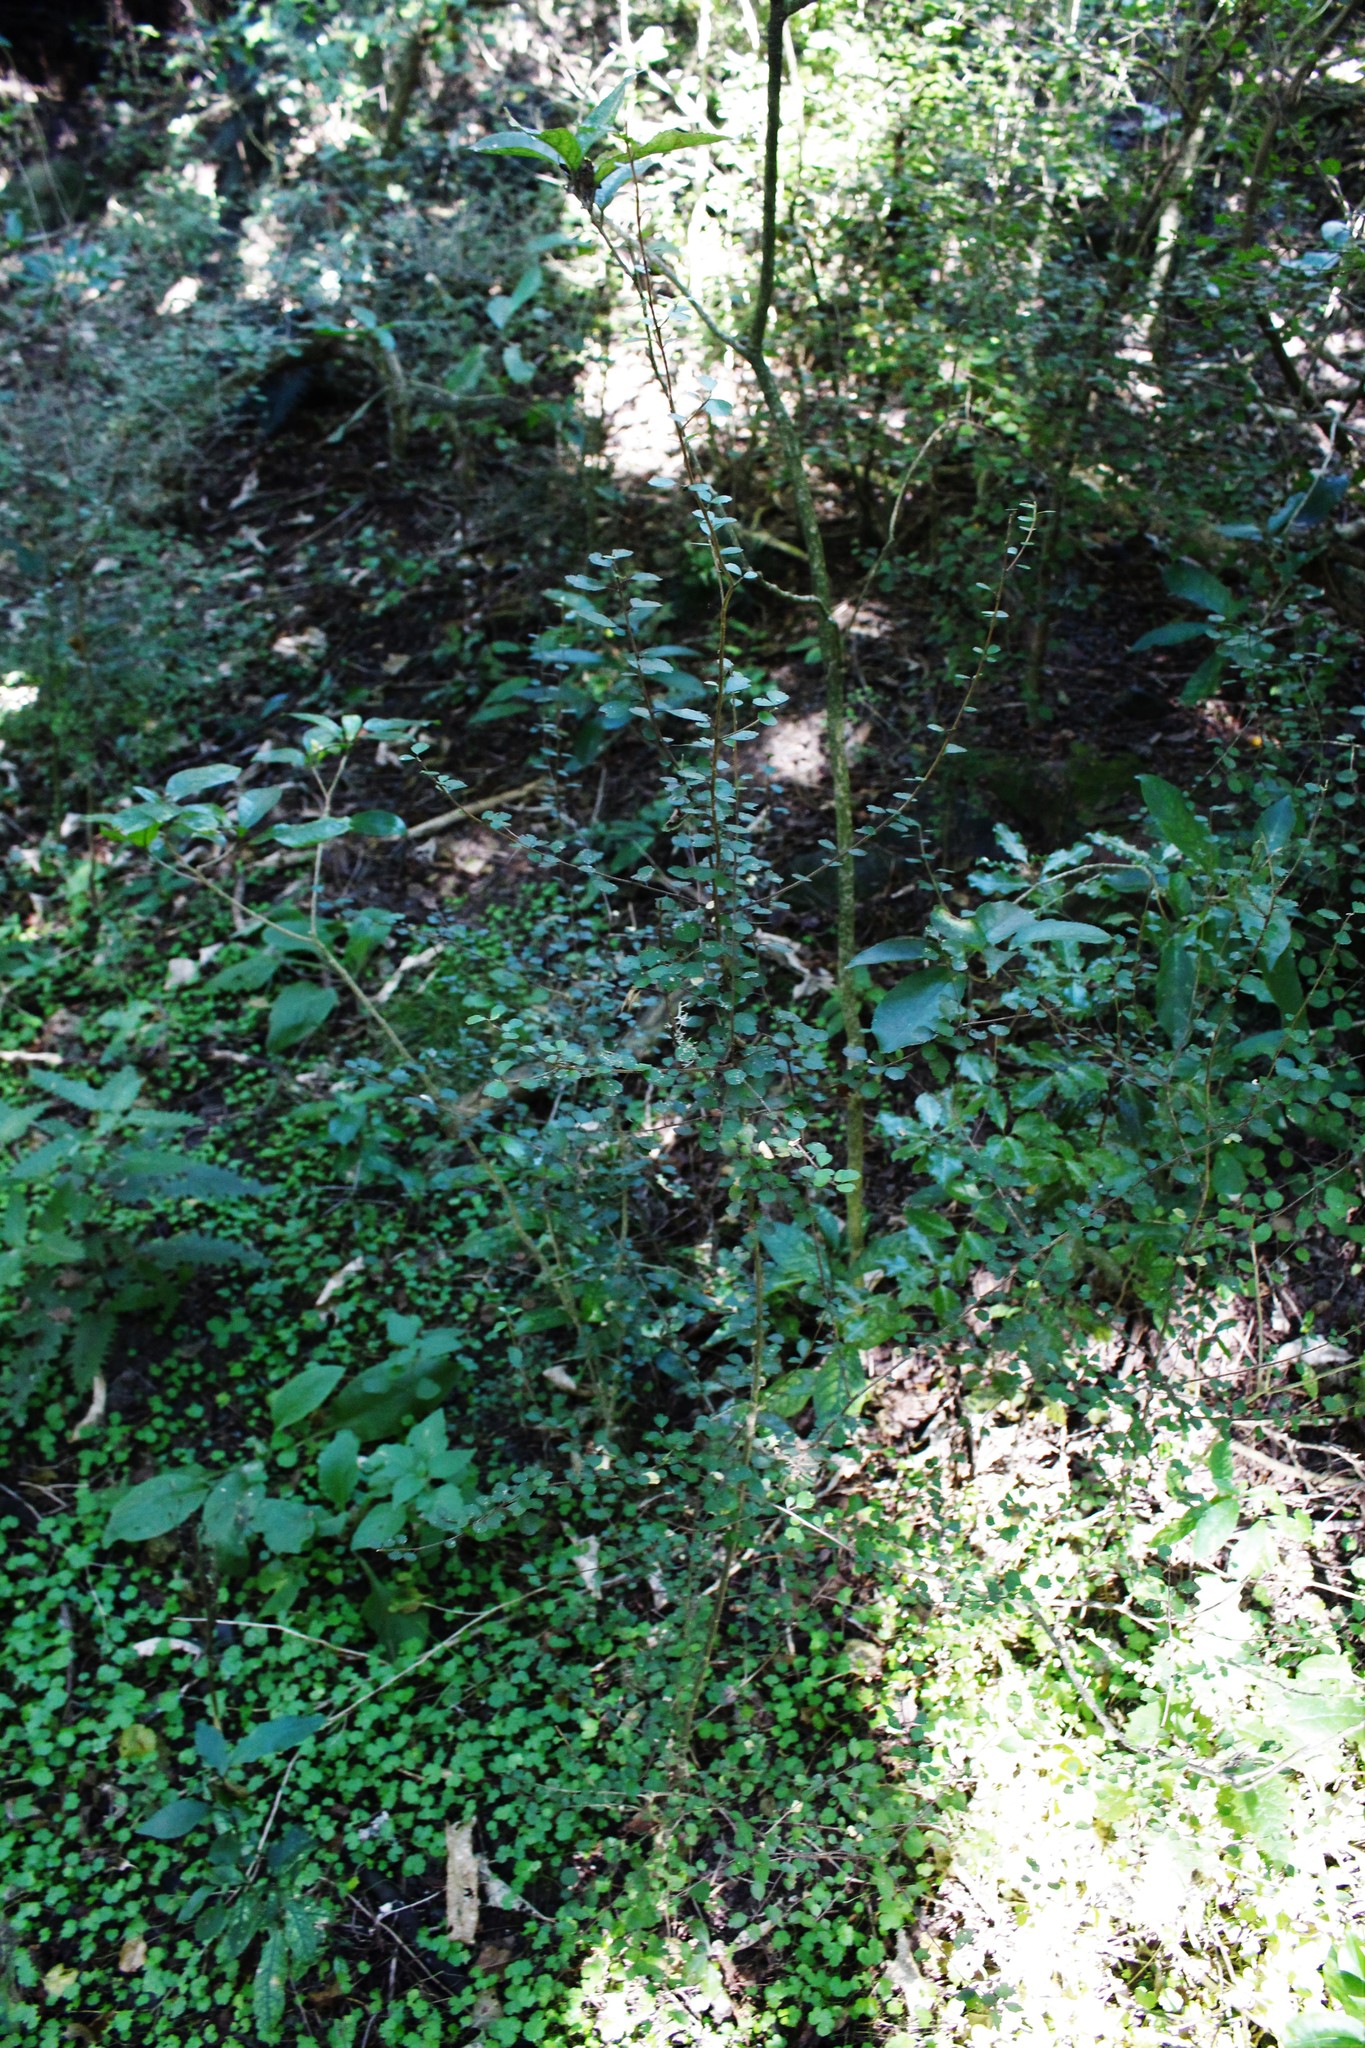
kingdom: Plantae
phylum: Tracheophyta
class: Magnoliopsida
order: Malvales
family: Malvaceae
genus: Hoheria
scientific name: Hoheria angustifolia
